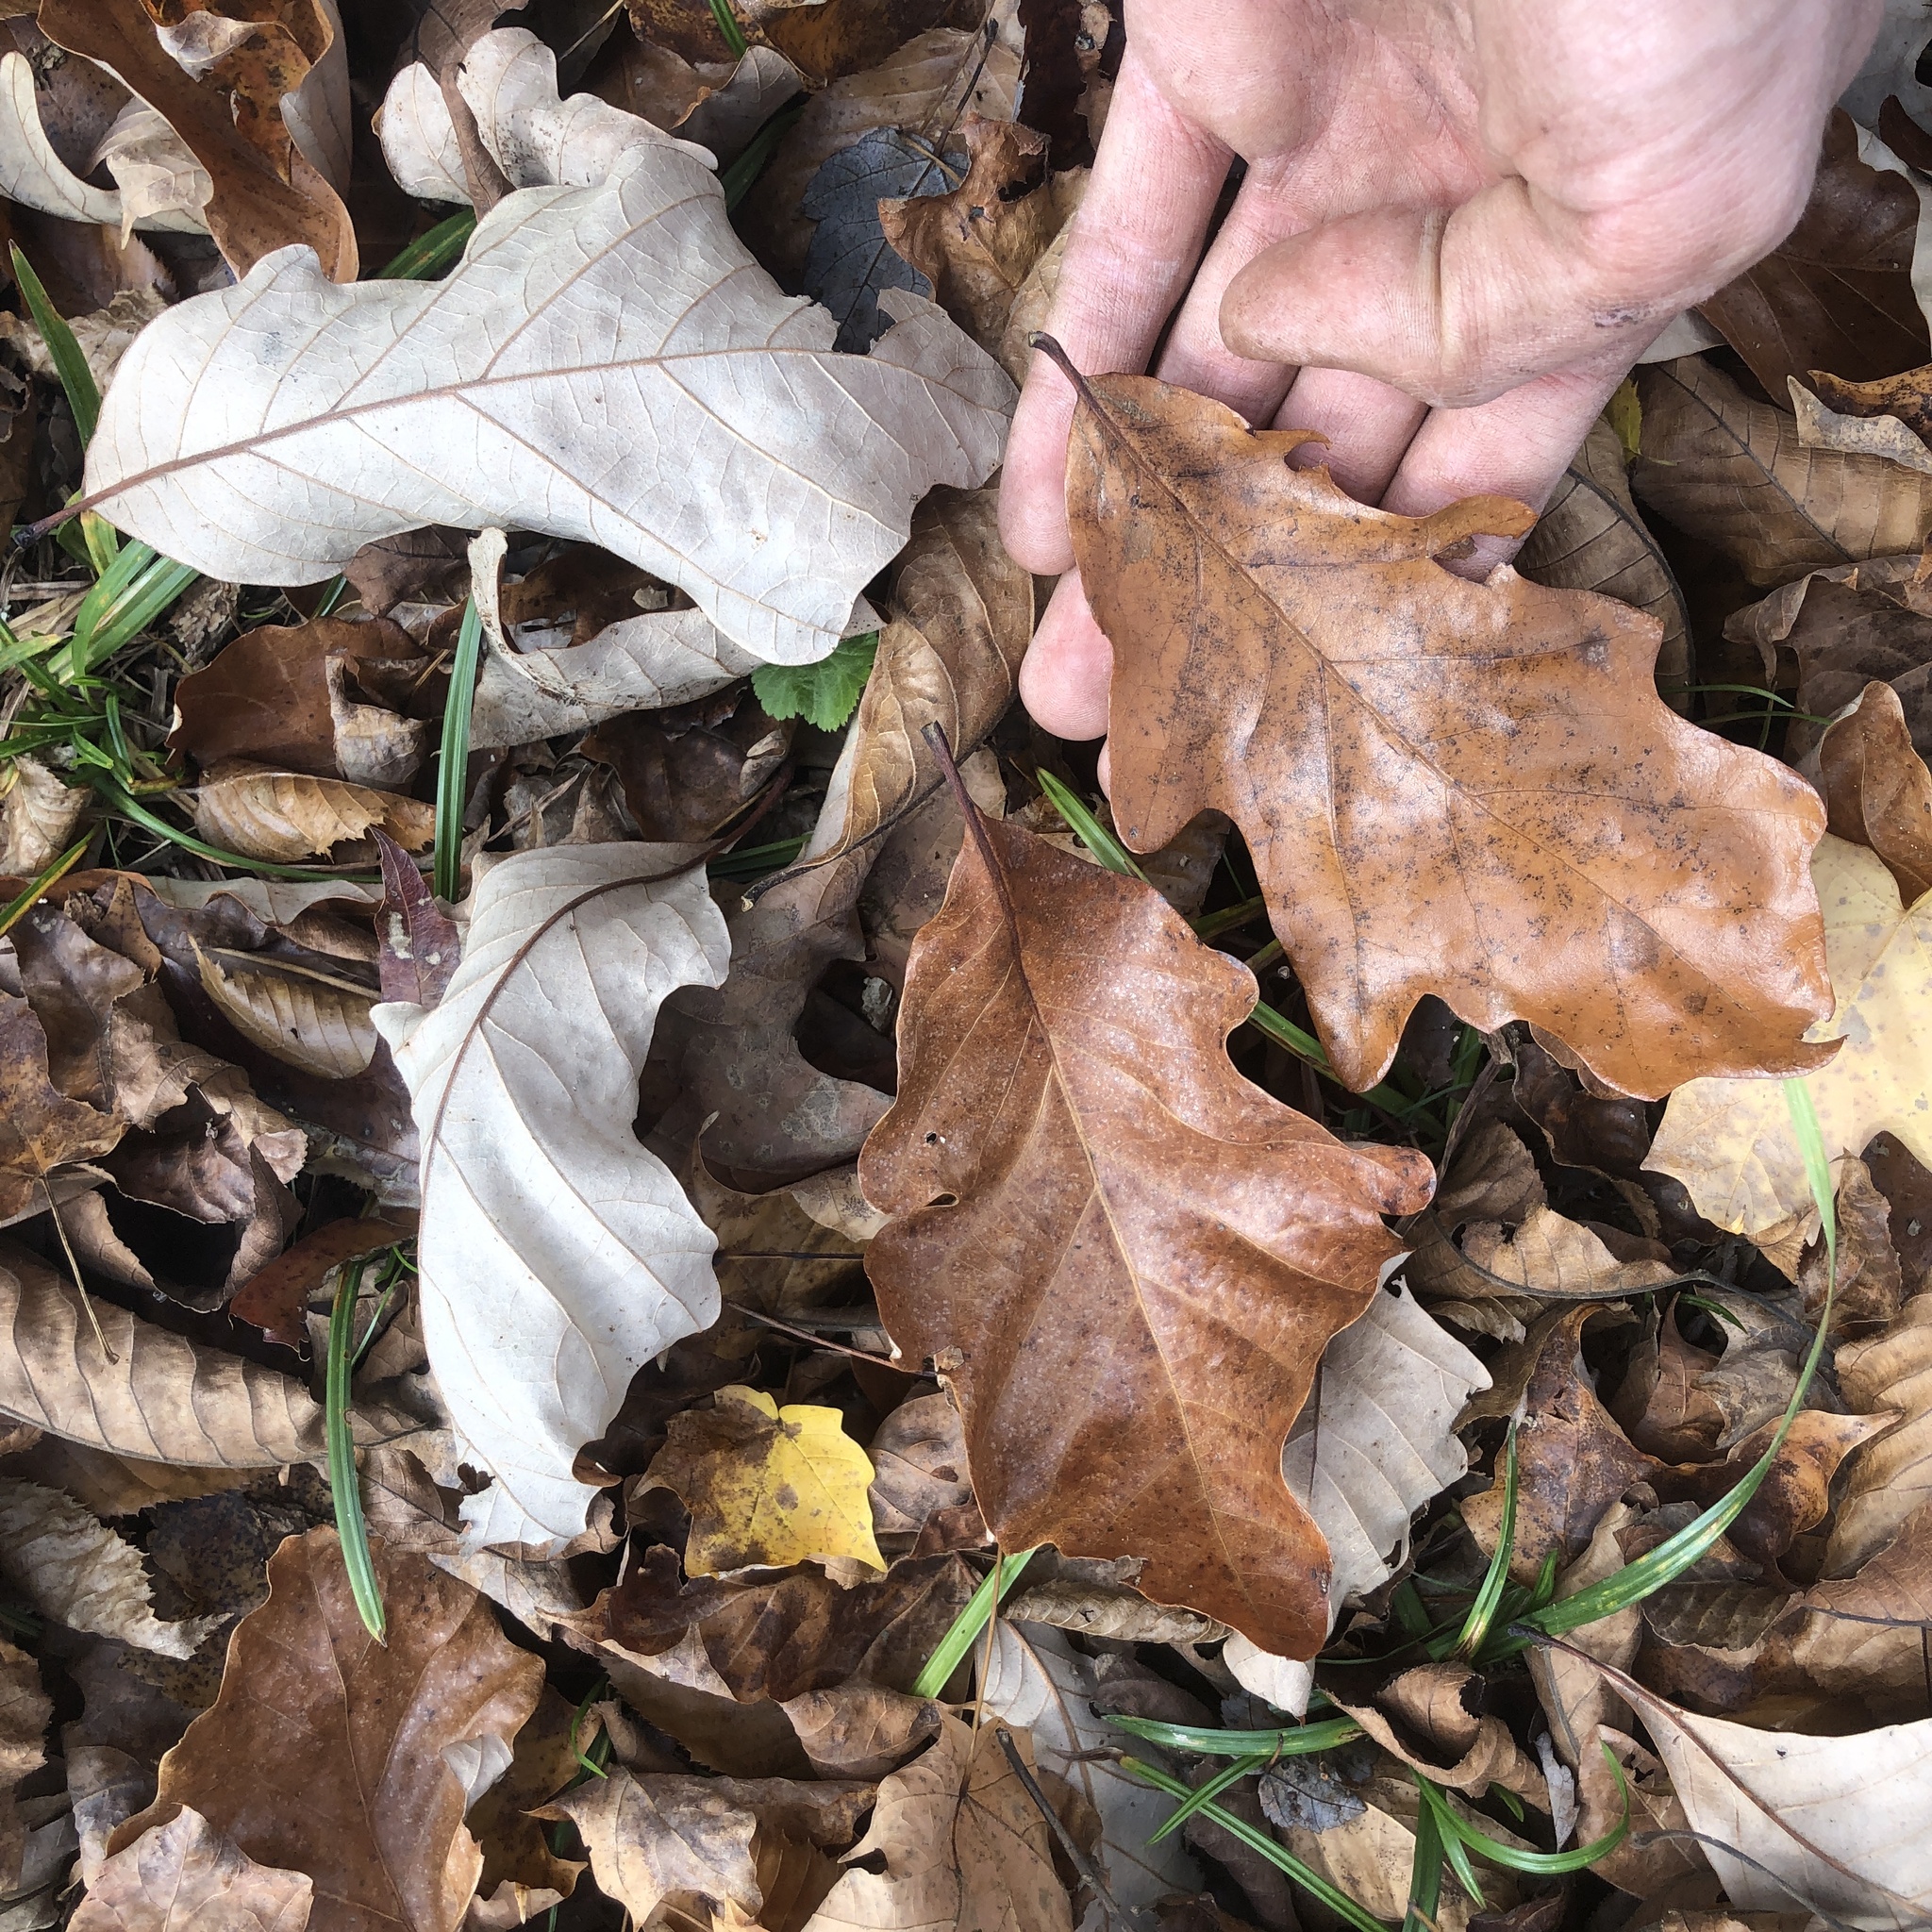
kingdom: Plantae
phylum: Tracheophyta
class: Magnoliopsida
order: Fagales
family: Fagaceae
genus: Quercus
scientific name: Quercus bicolor
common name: Swamp white oak
